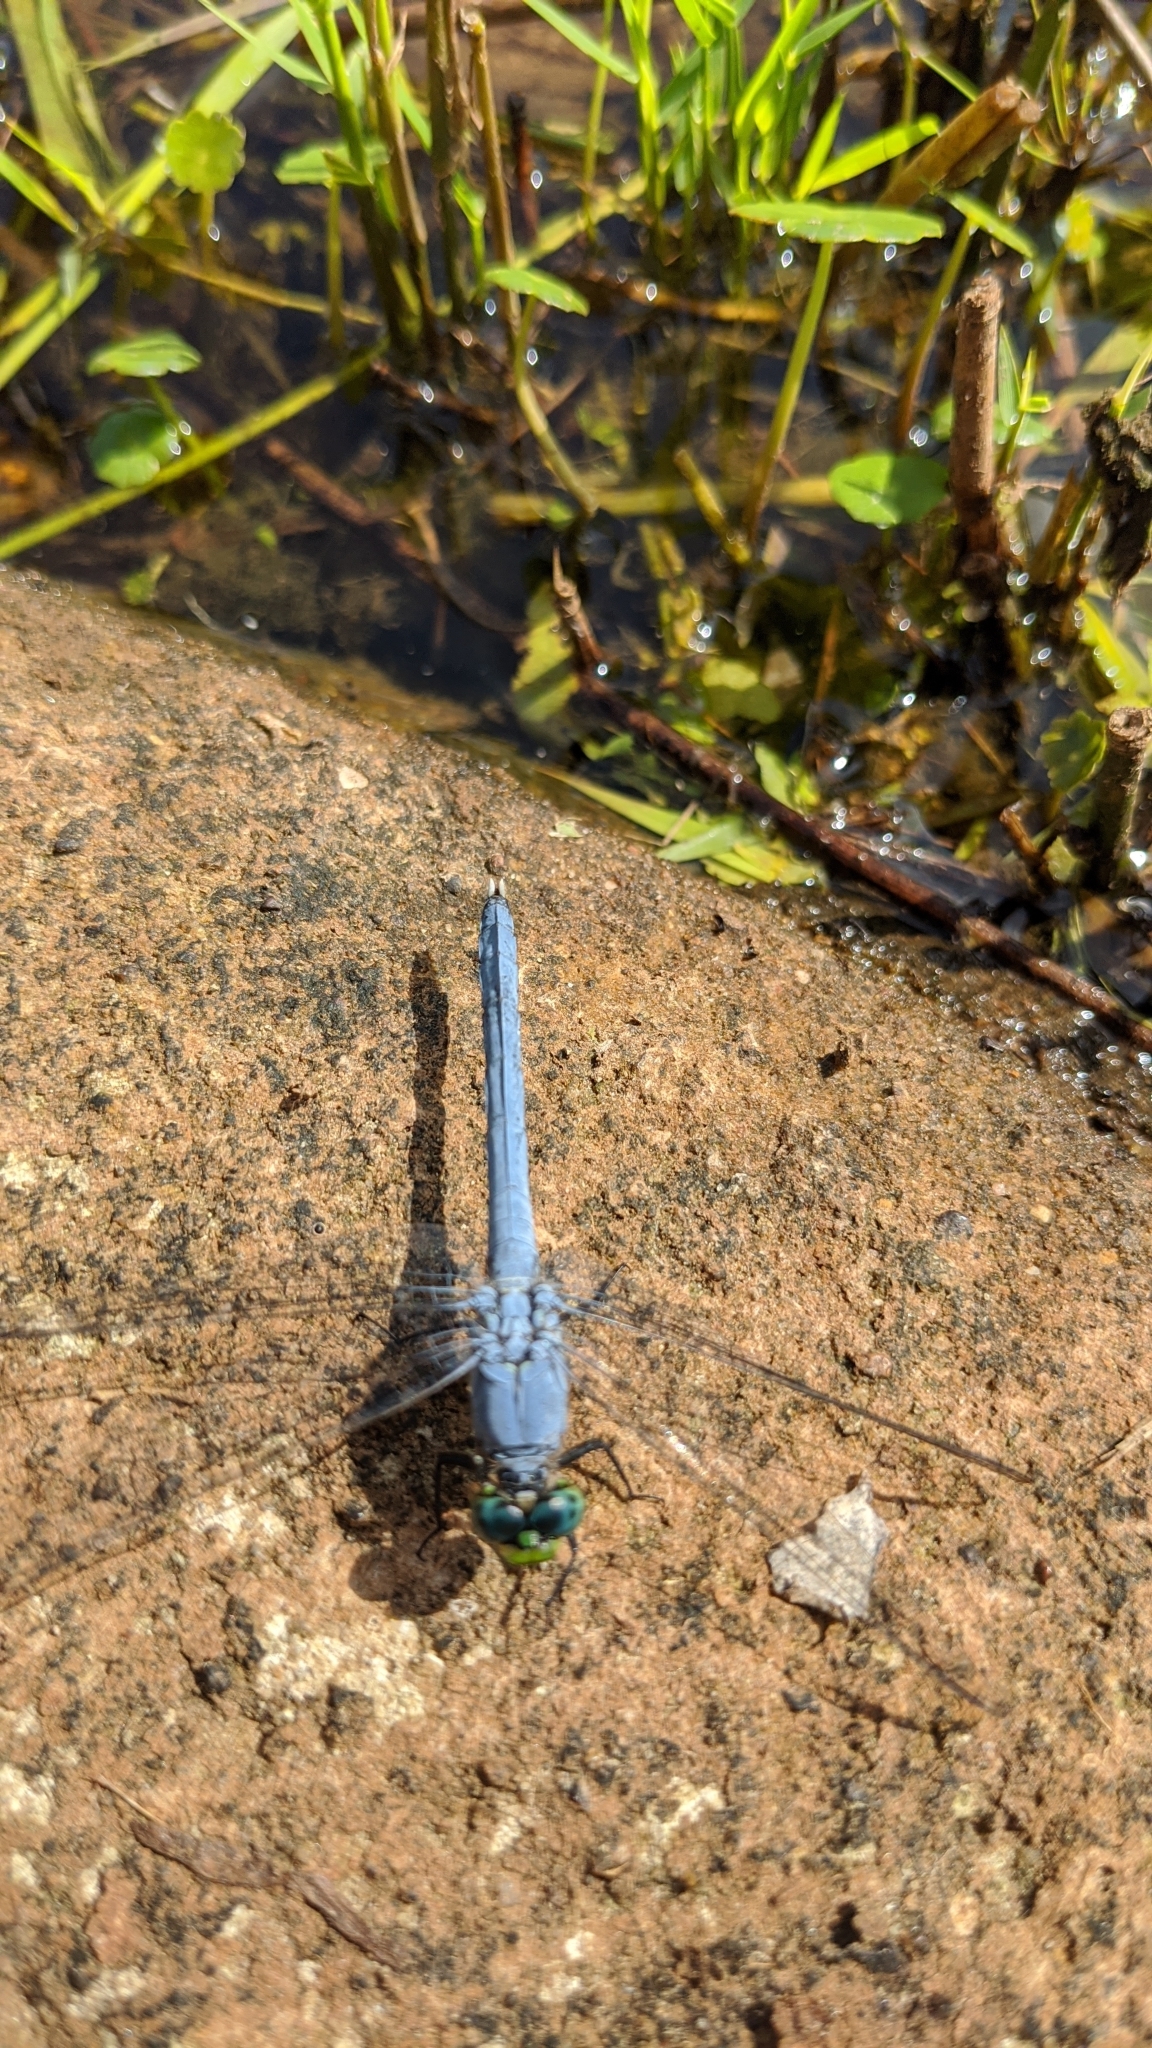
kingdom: Animalia
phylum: Arthropoda
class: Insecta
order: Odonata
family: Libellulidae
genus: Erythemis
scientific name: Erythemis simplicicollis
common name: Eastern pondhawk
